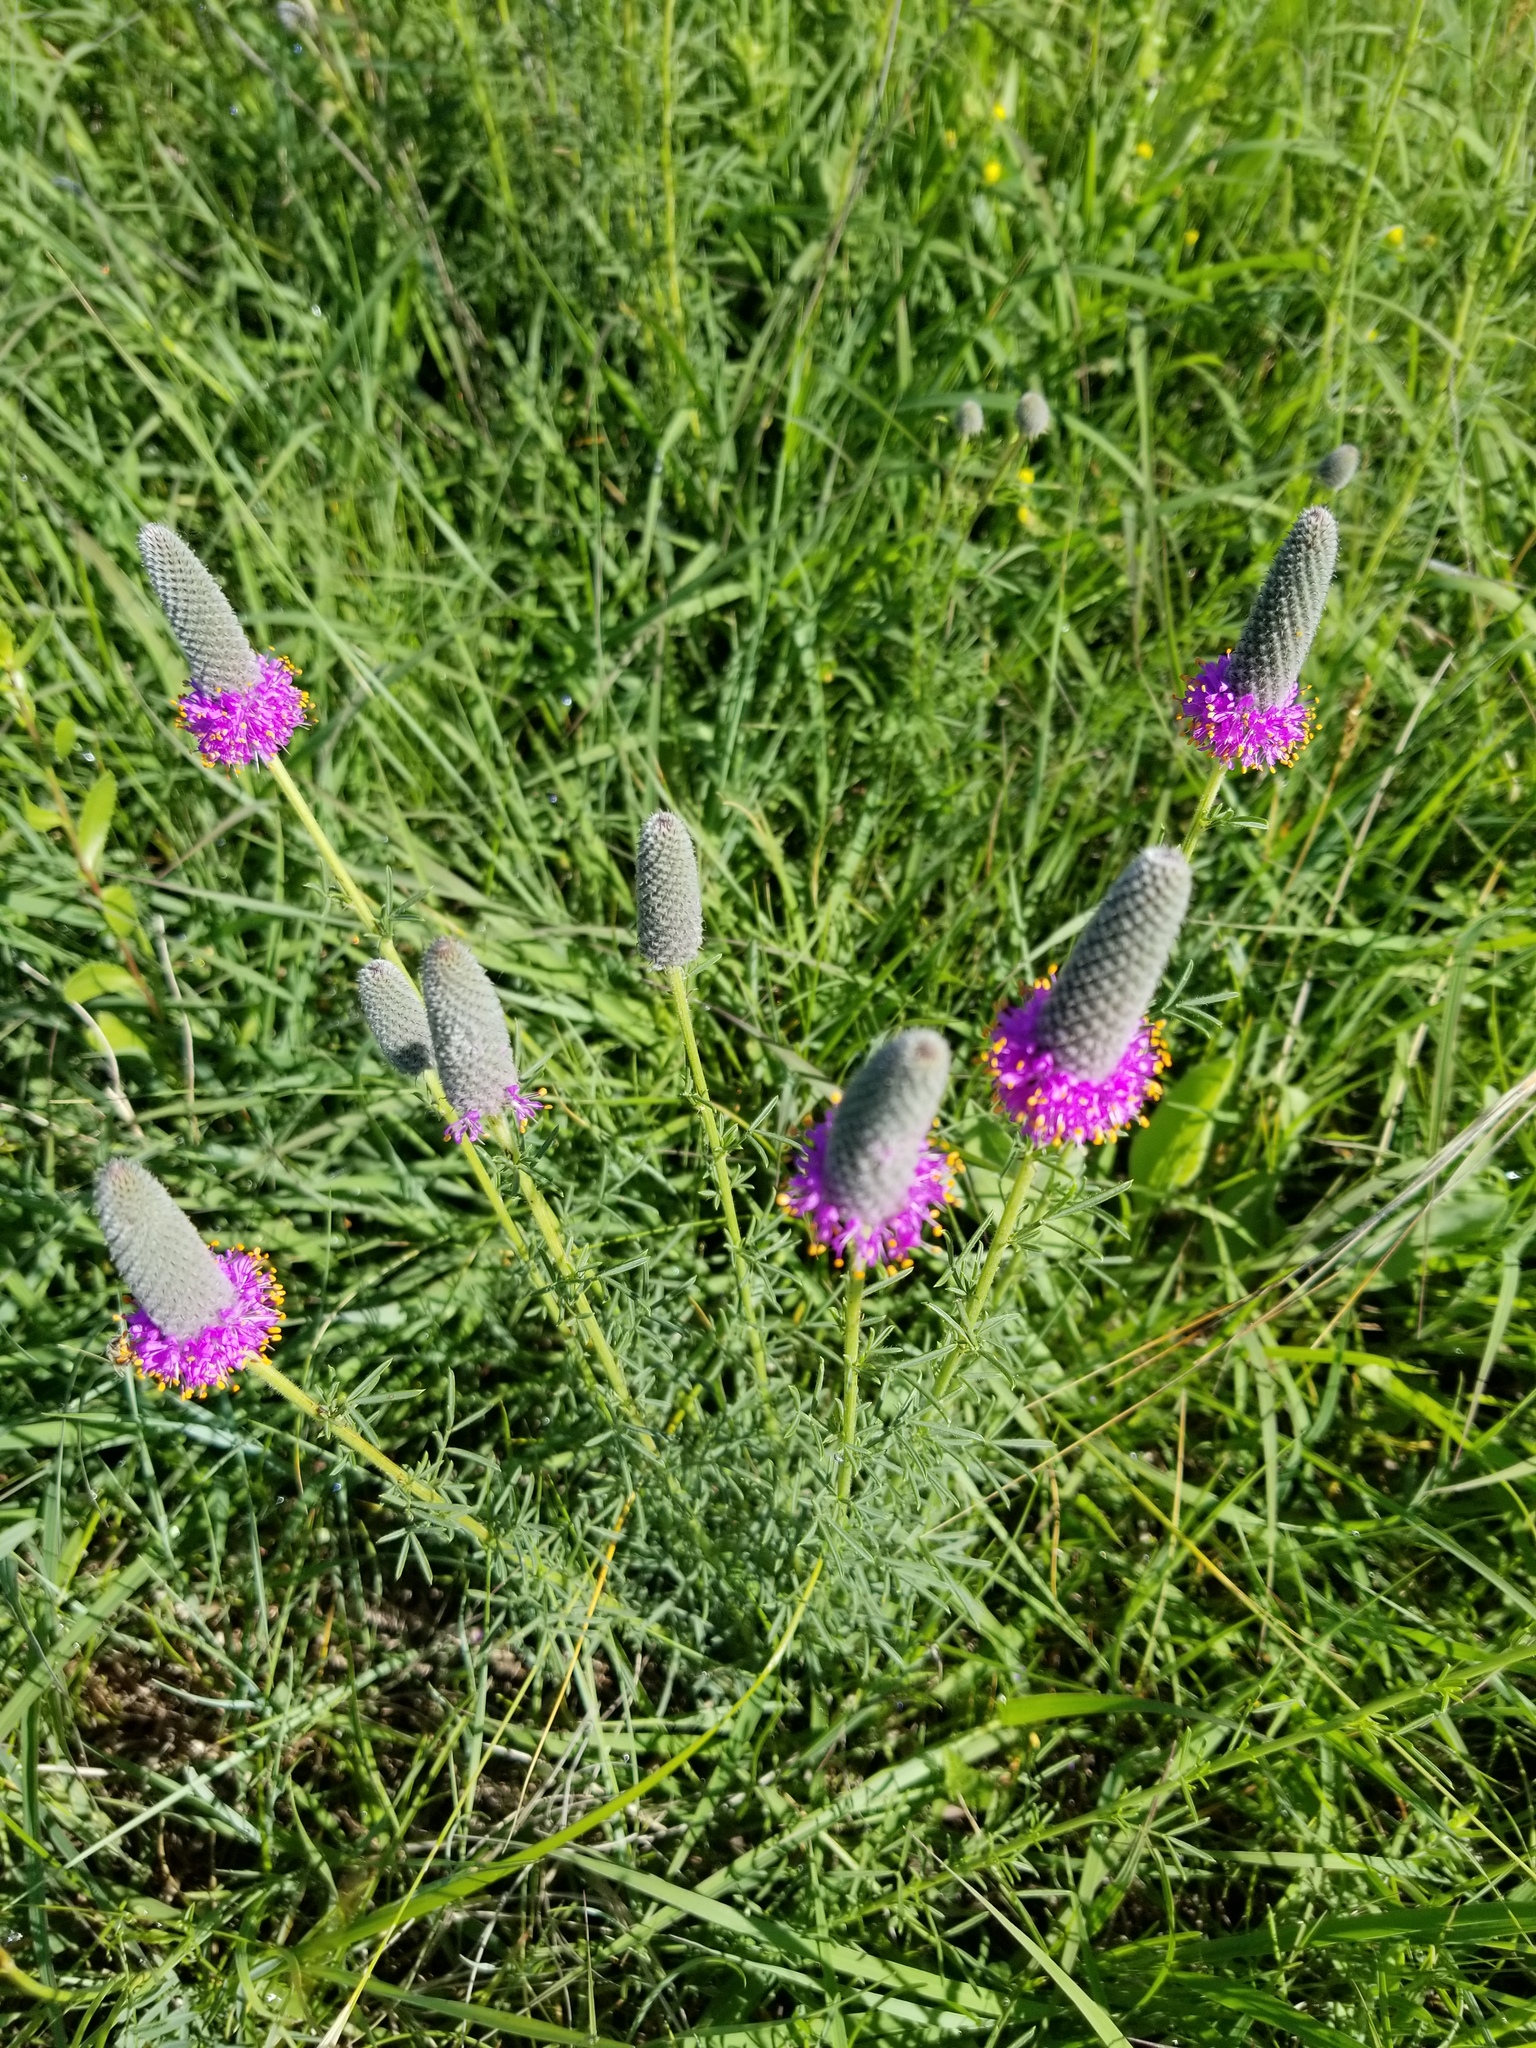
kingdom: Plantae
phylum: Tracheophyta
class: Magnoliopsida
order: Fabales
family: Fabaceae
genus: Dalea
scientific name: Dalea purpurea
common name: Purple prairie-clover
